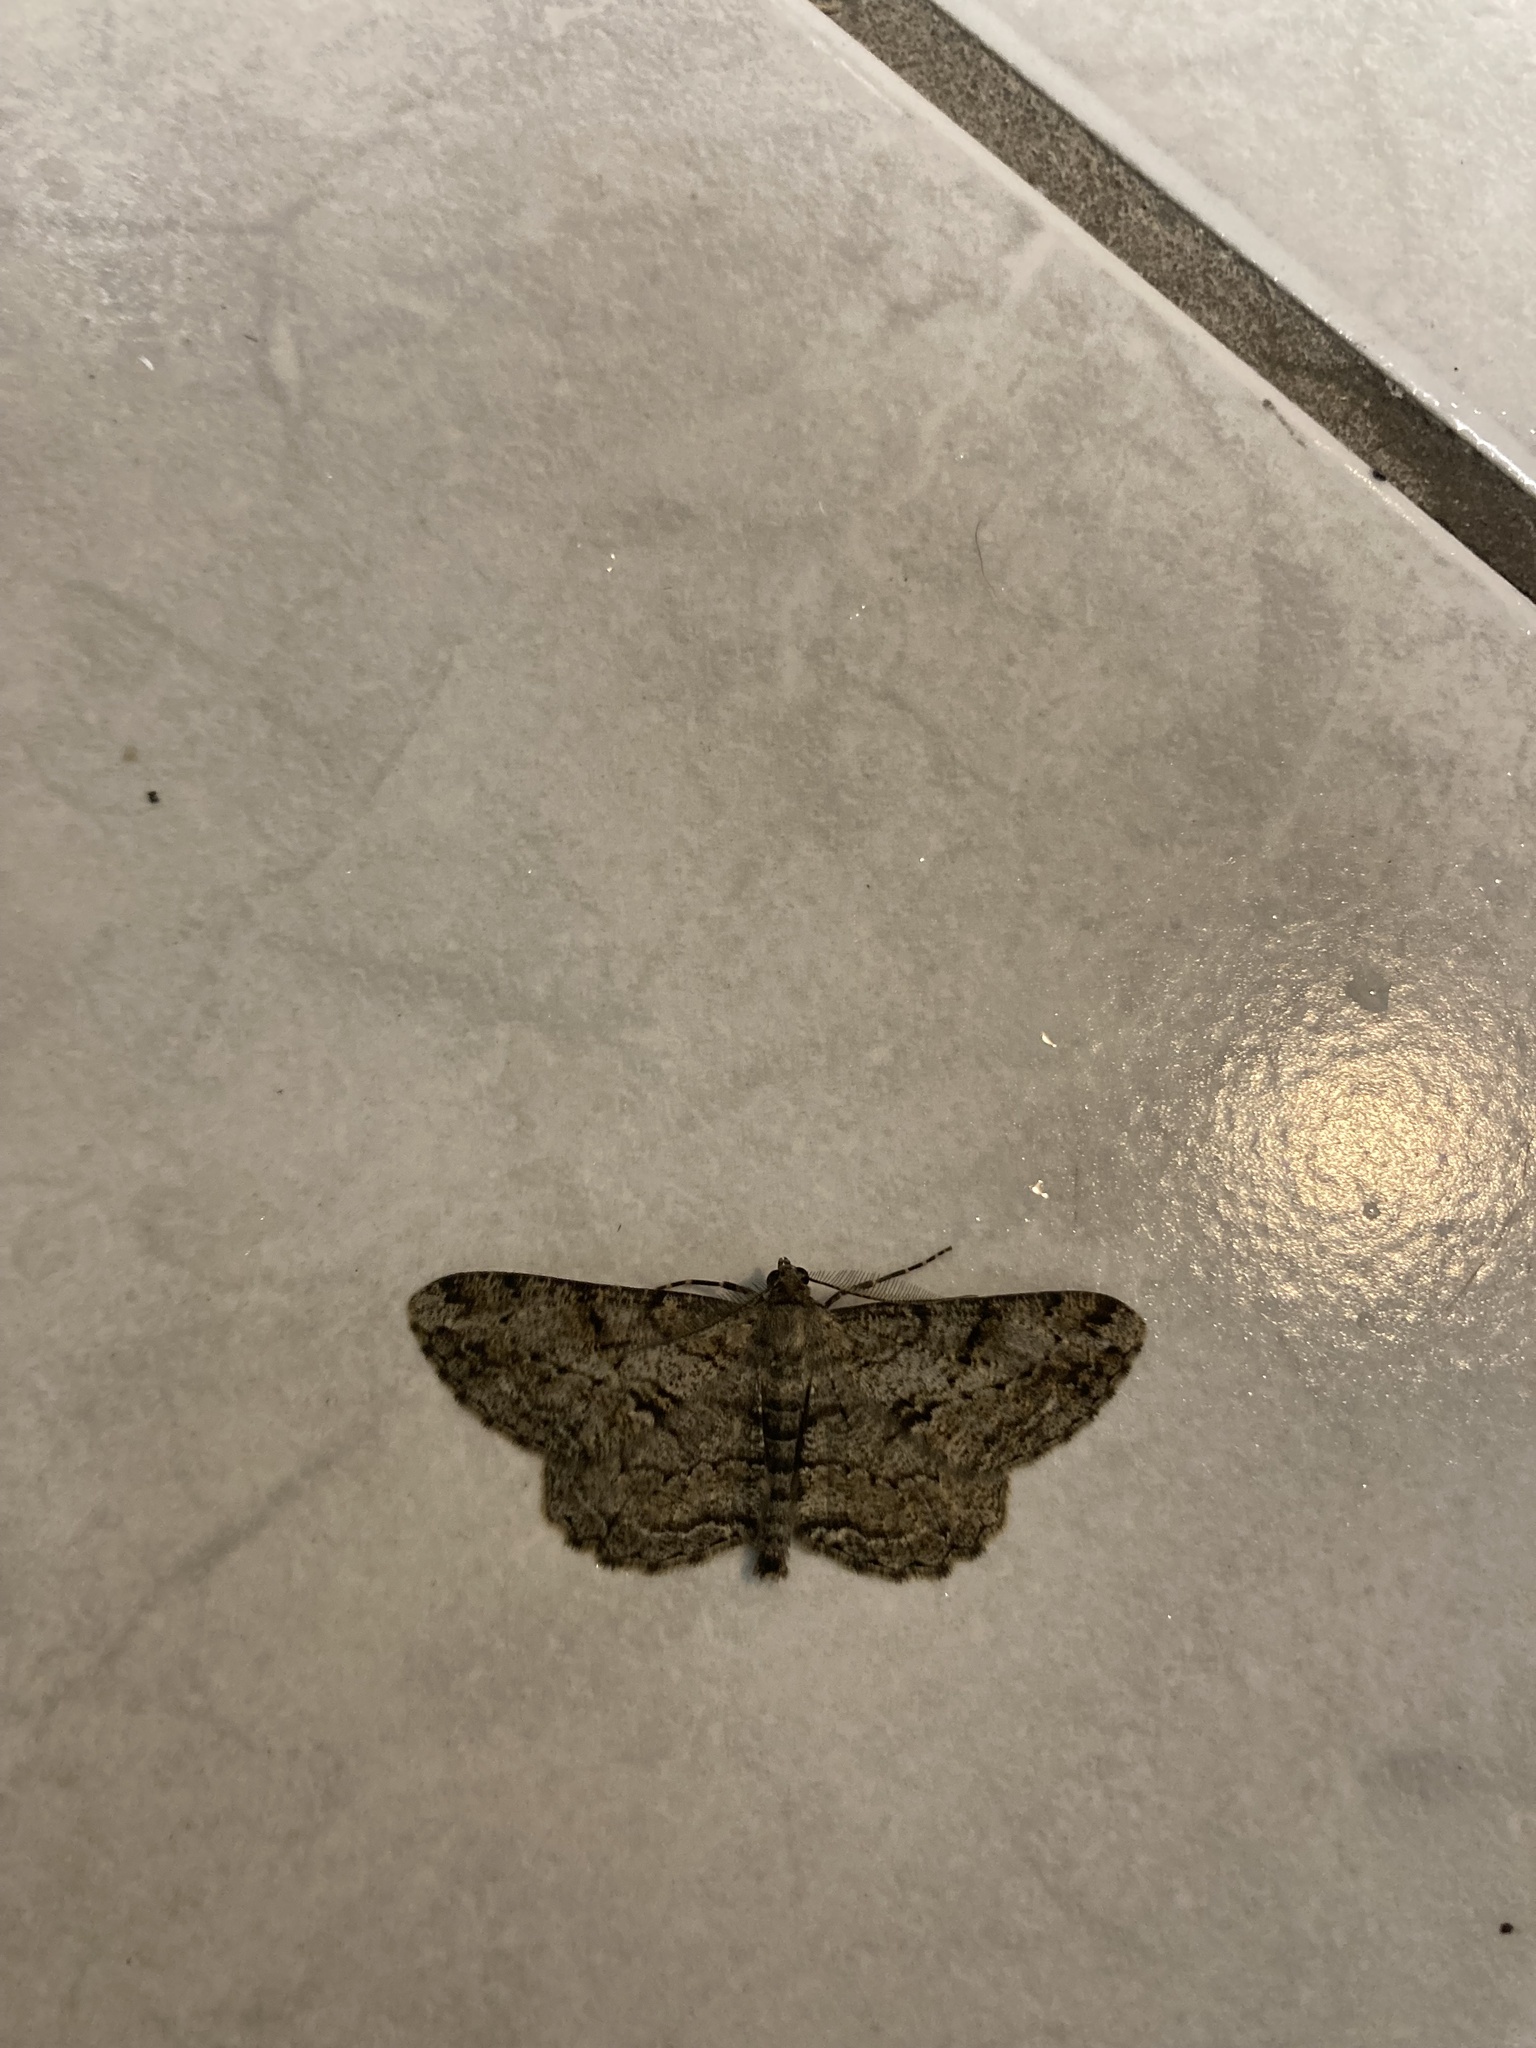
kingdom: Animalia
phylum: Arthropoda
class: Insecta
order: Lepidoptera
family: Geometridae
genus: Peribatodes
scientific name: Peribatodes rhomboidaria
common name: Willow beauty
